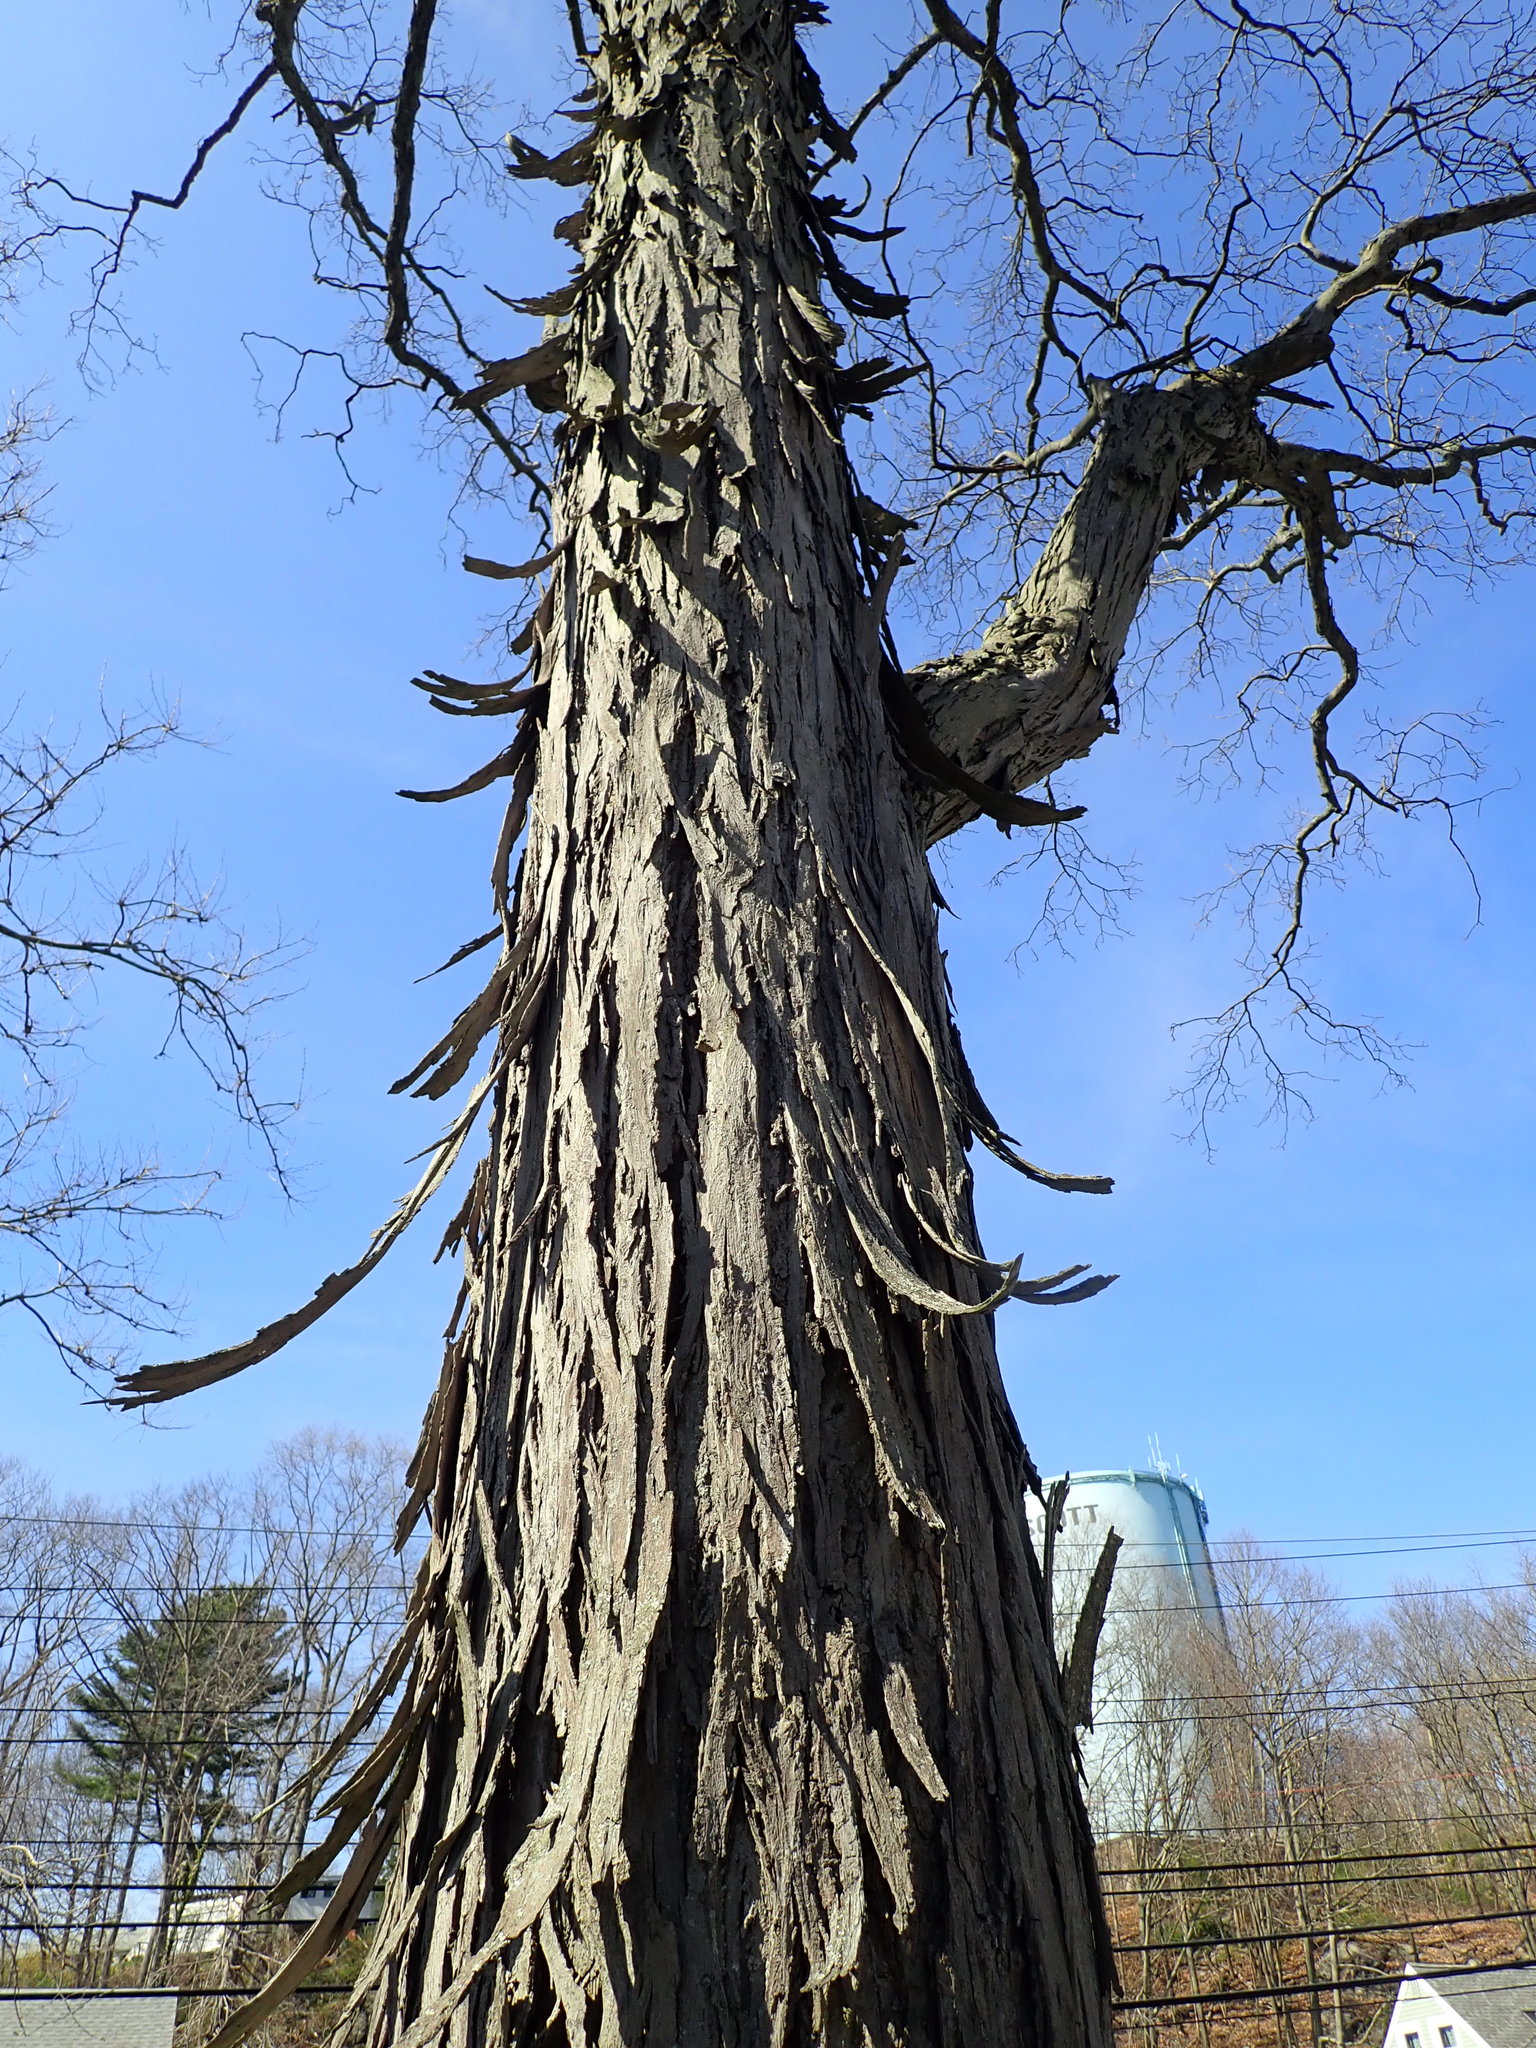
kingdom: Plantae
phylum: Tracheophyta
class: Magnoliopsida
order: Fagales
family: Juglandaceae
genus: Carya
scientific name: Carya ovata
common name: Shagbark hickory
